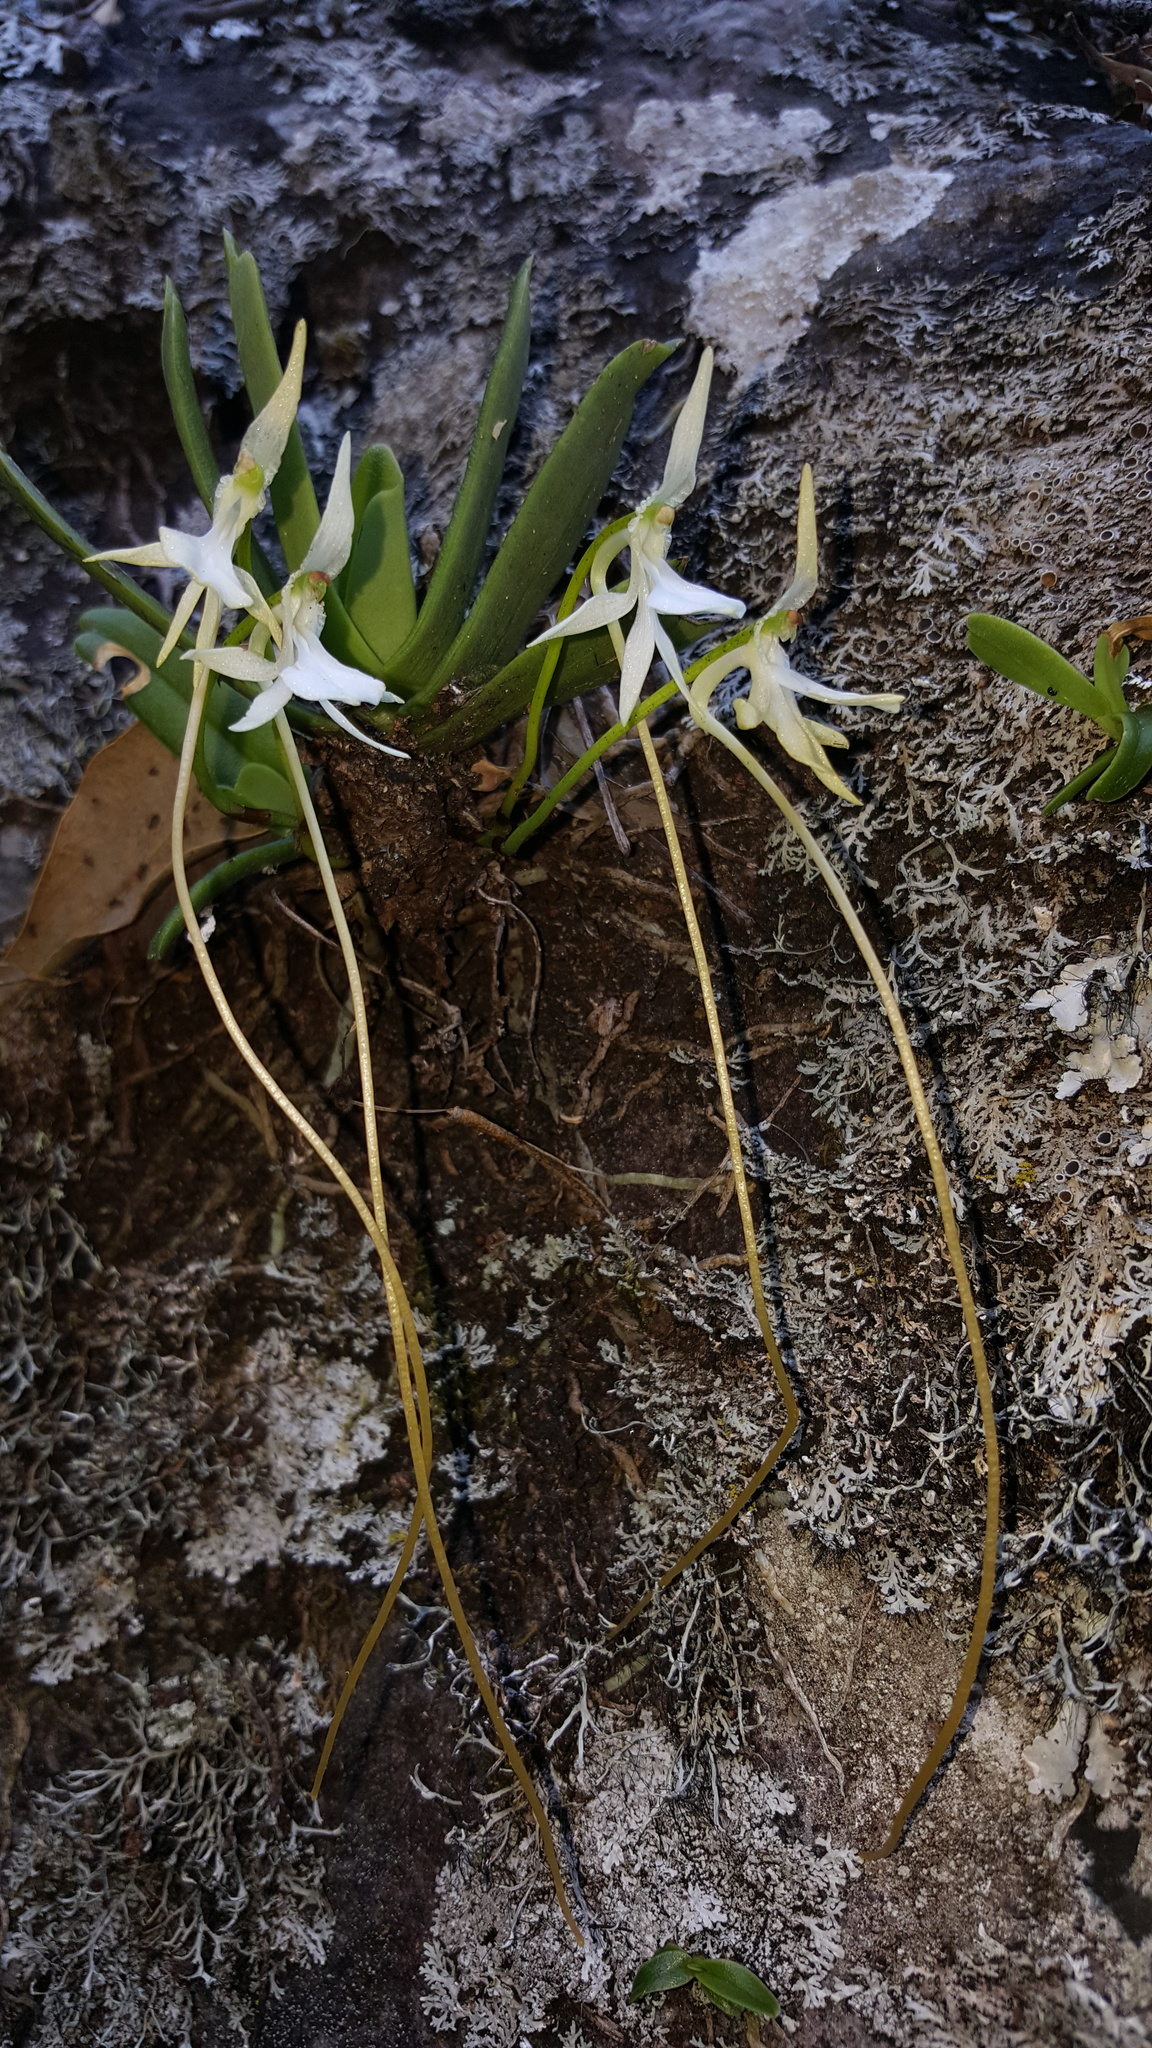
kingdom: Plantae
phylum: Tracheophyta
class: Liliopsida
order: Asparagales
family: Orchidaceae
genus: Jumellea
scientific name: Jumellea densefoliata
